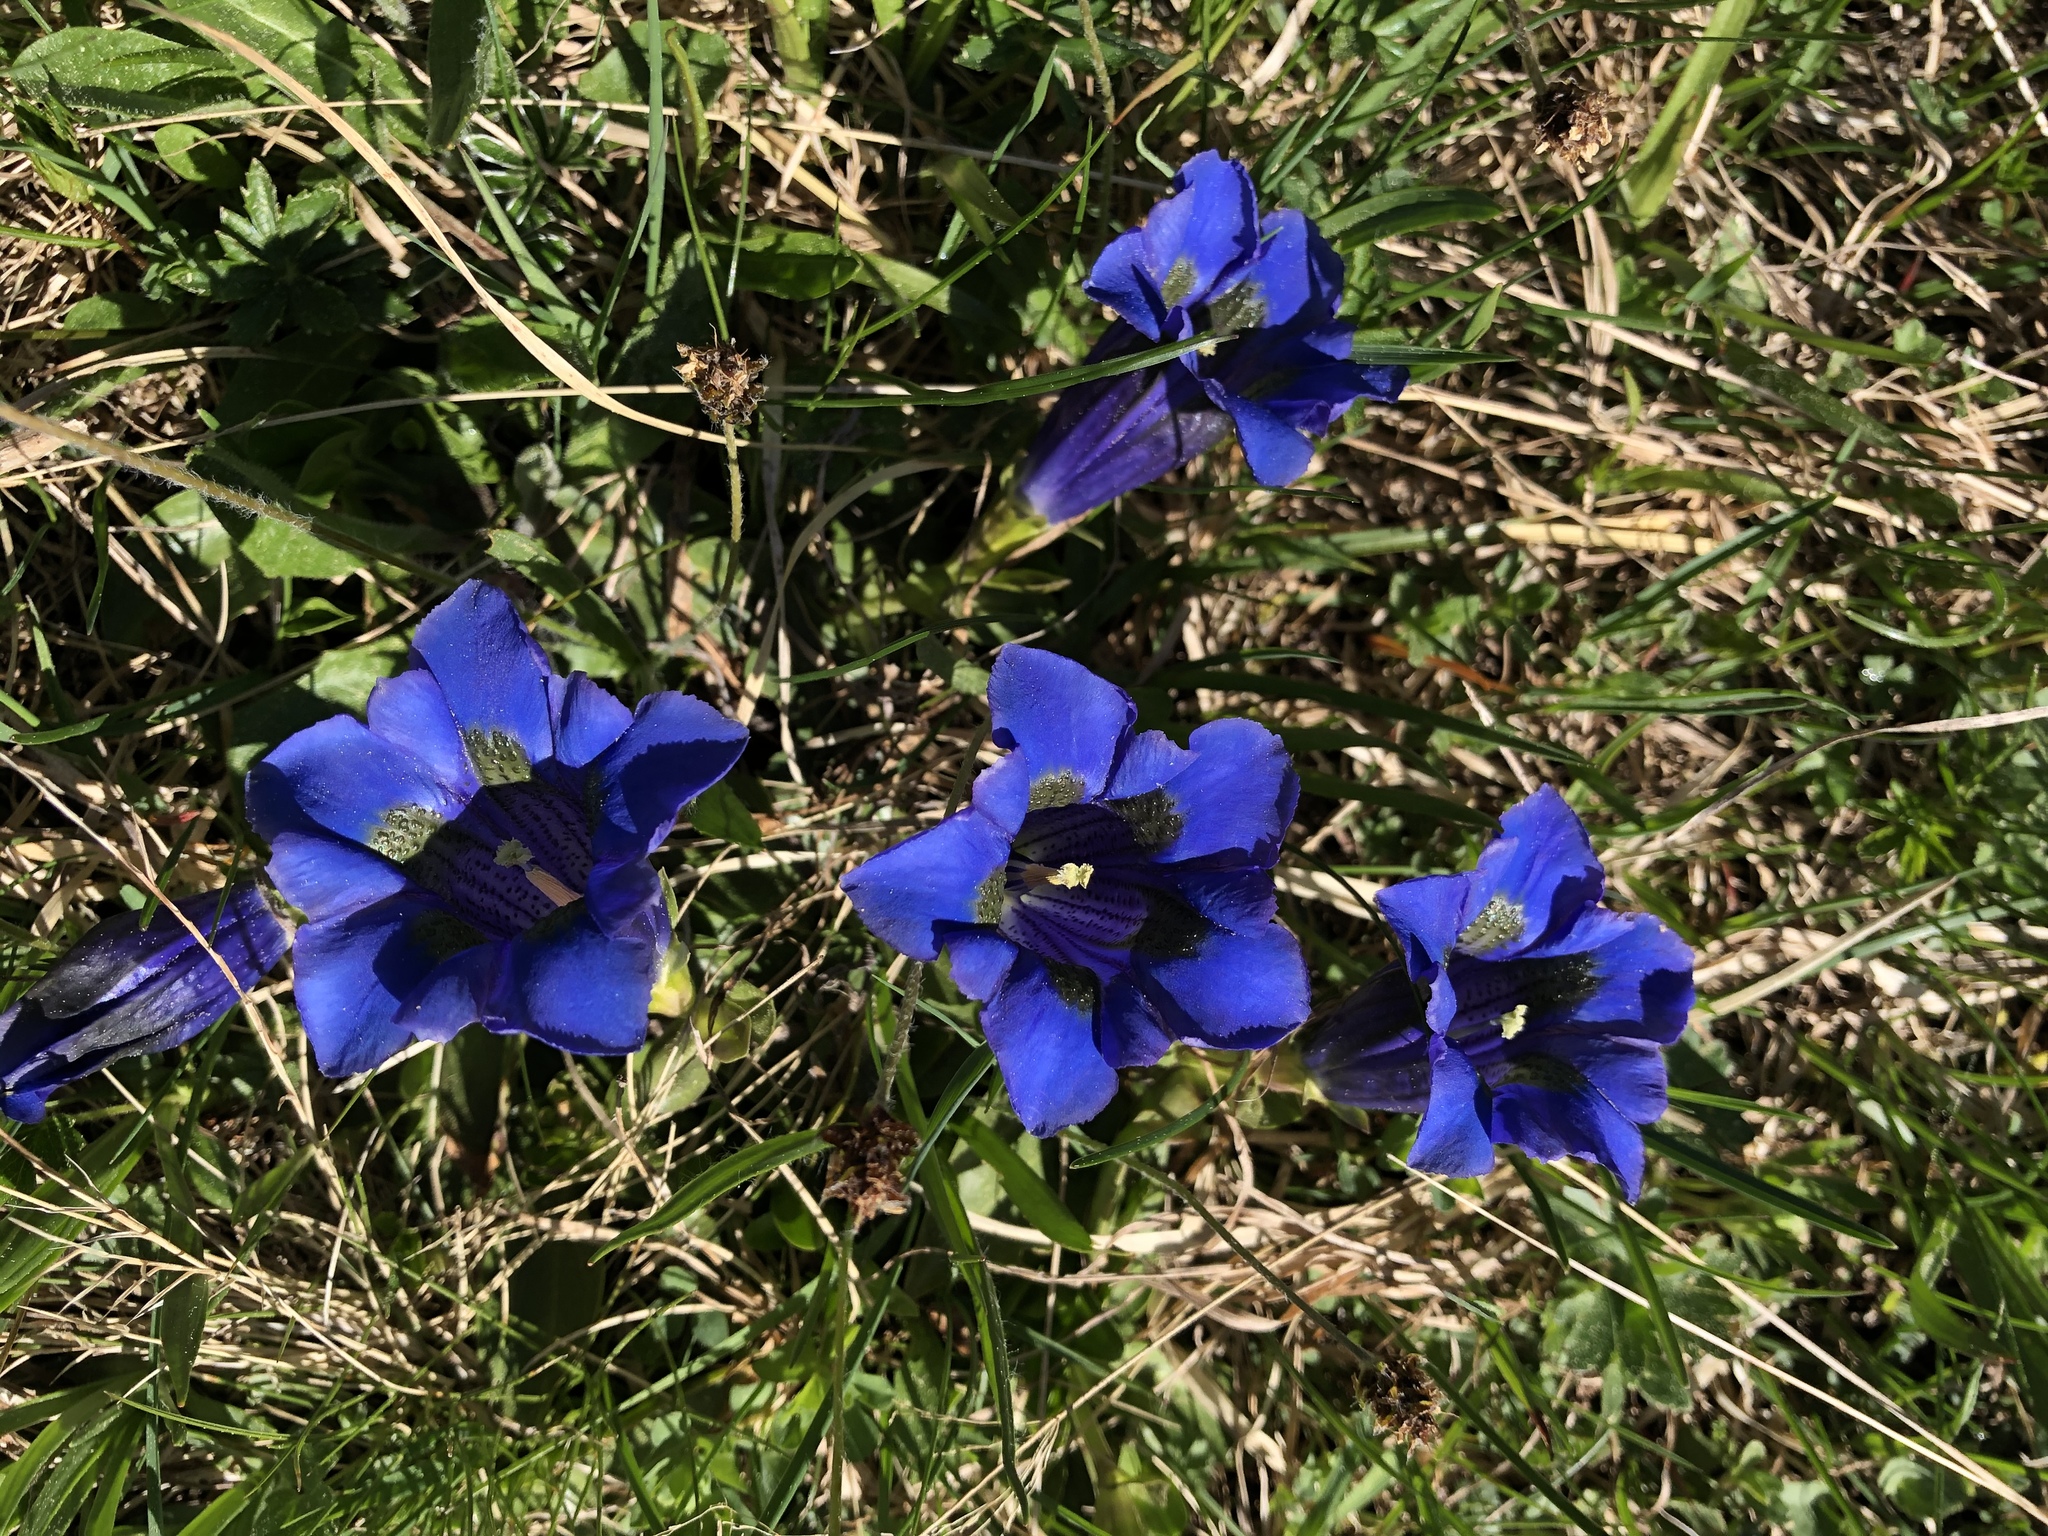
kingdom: Plantae
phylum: Tracheophyta
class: Magnoliopsida
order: Gentianales
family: Gentianaceae
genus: Gentiana
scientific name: Gentiana acaulis
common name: Trumpet gentian
